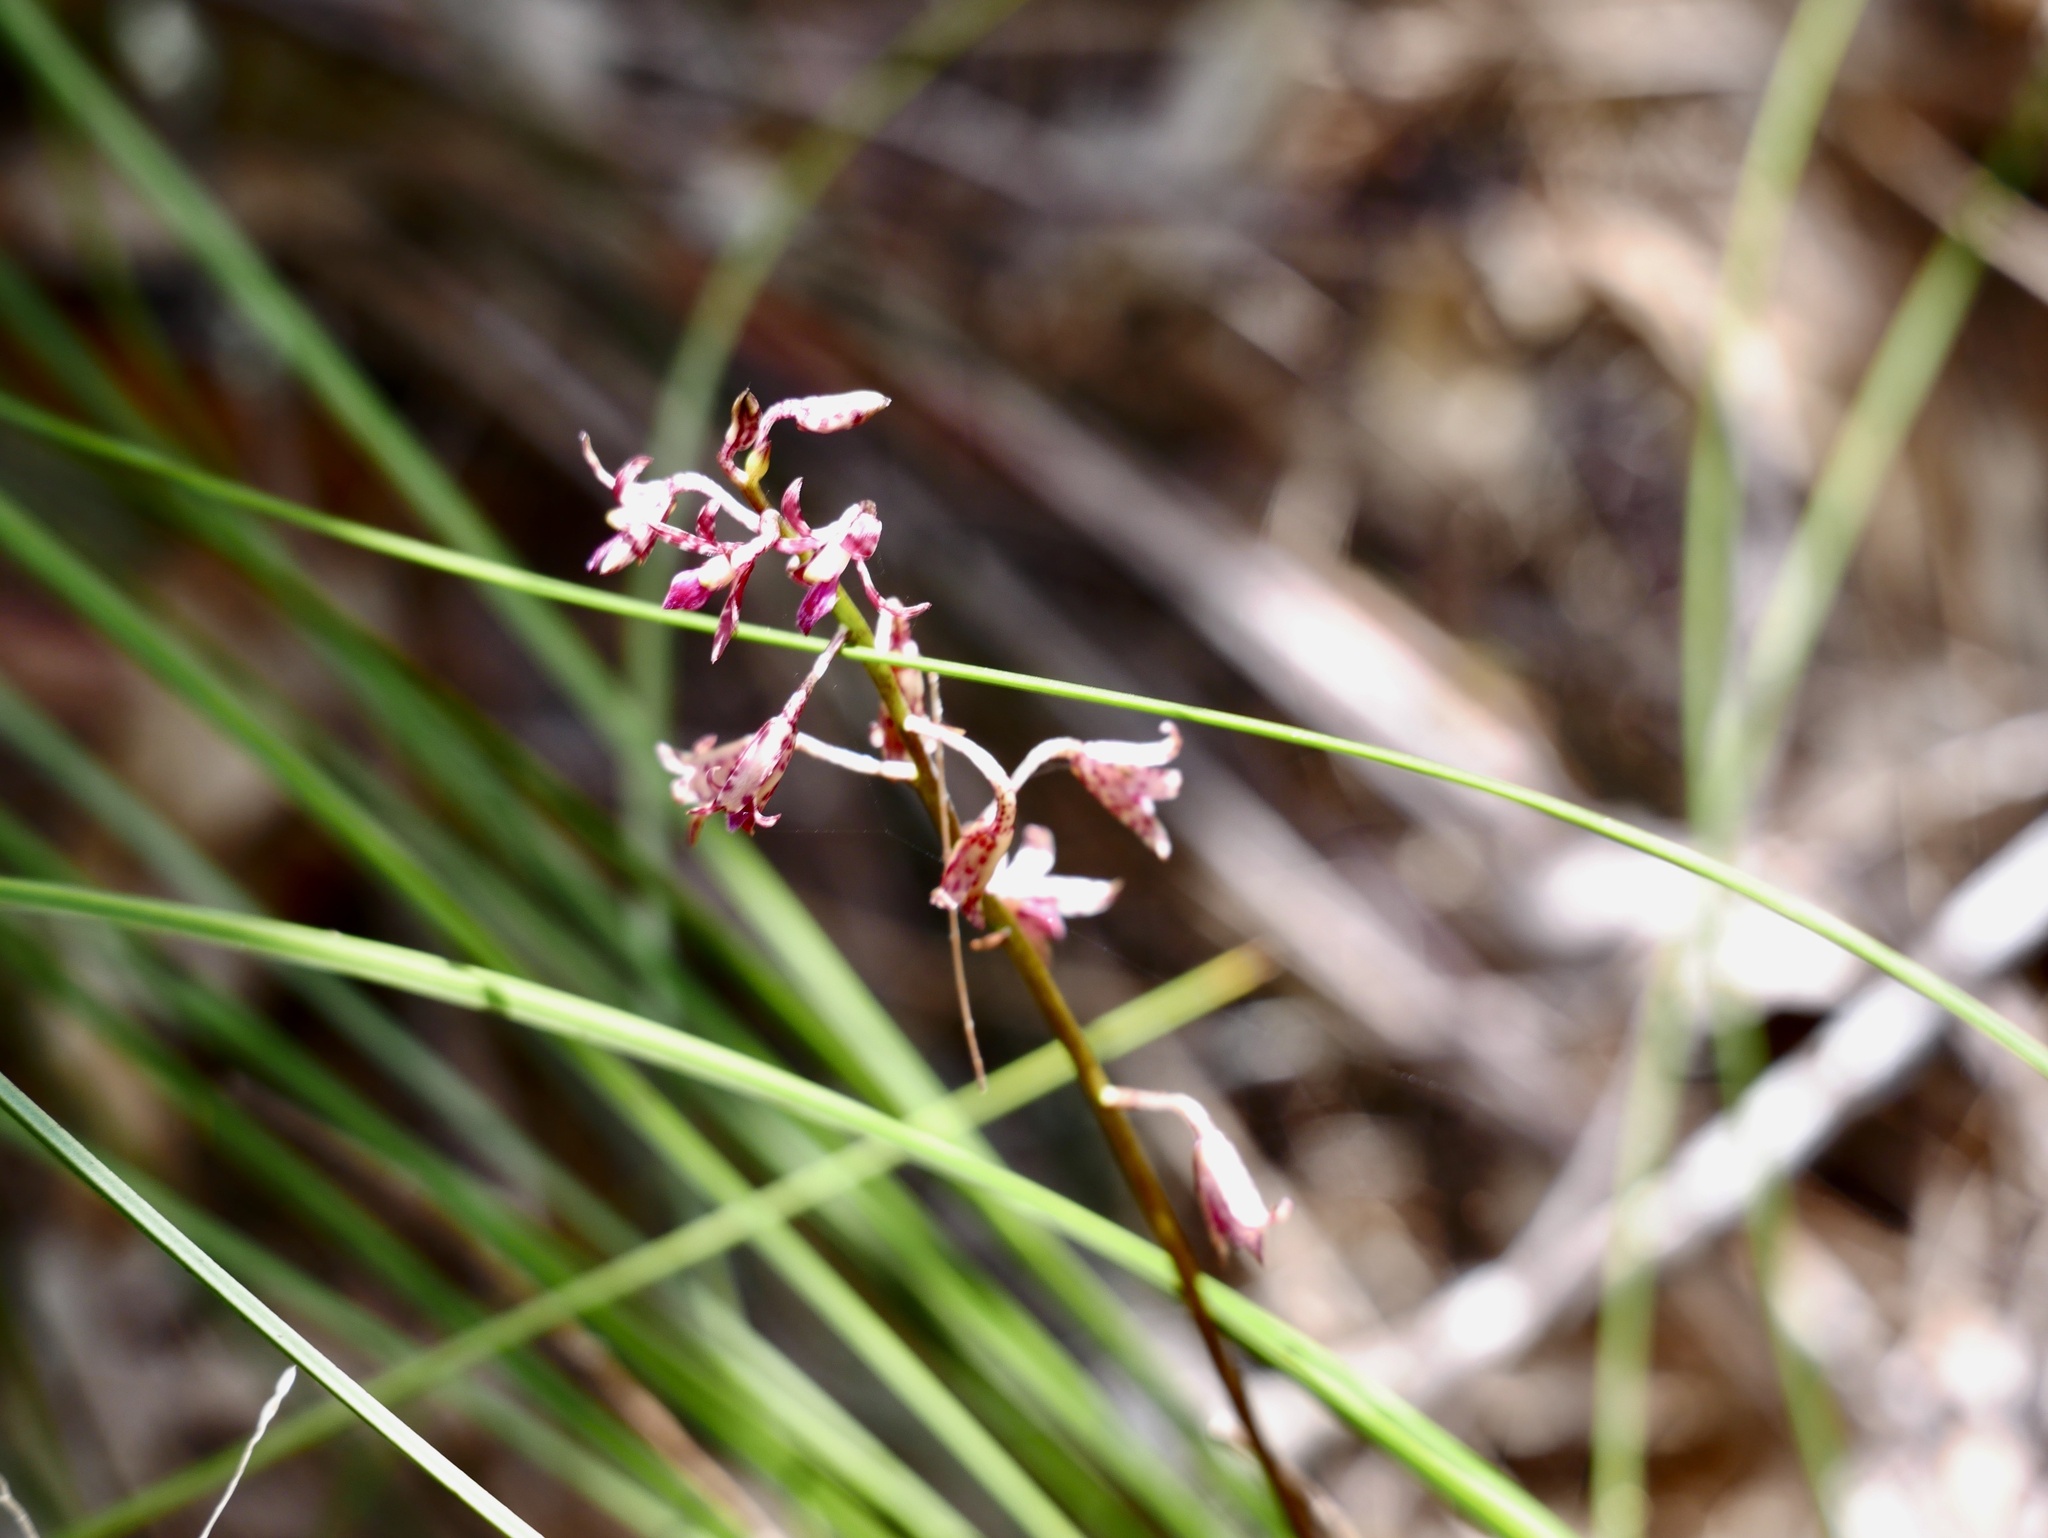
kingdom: Plantae
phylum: Tracheophyta
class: Liliopsida
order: Asparagales
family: Orchidaceae
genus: Dipodium
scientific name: Dipodium variegatum
